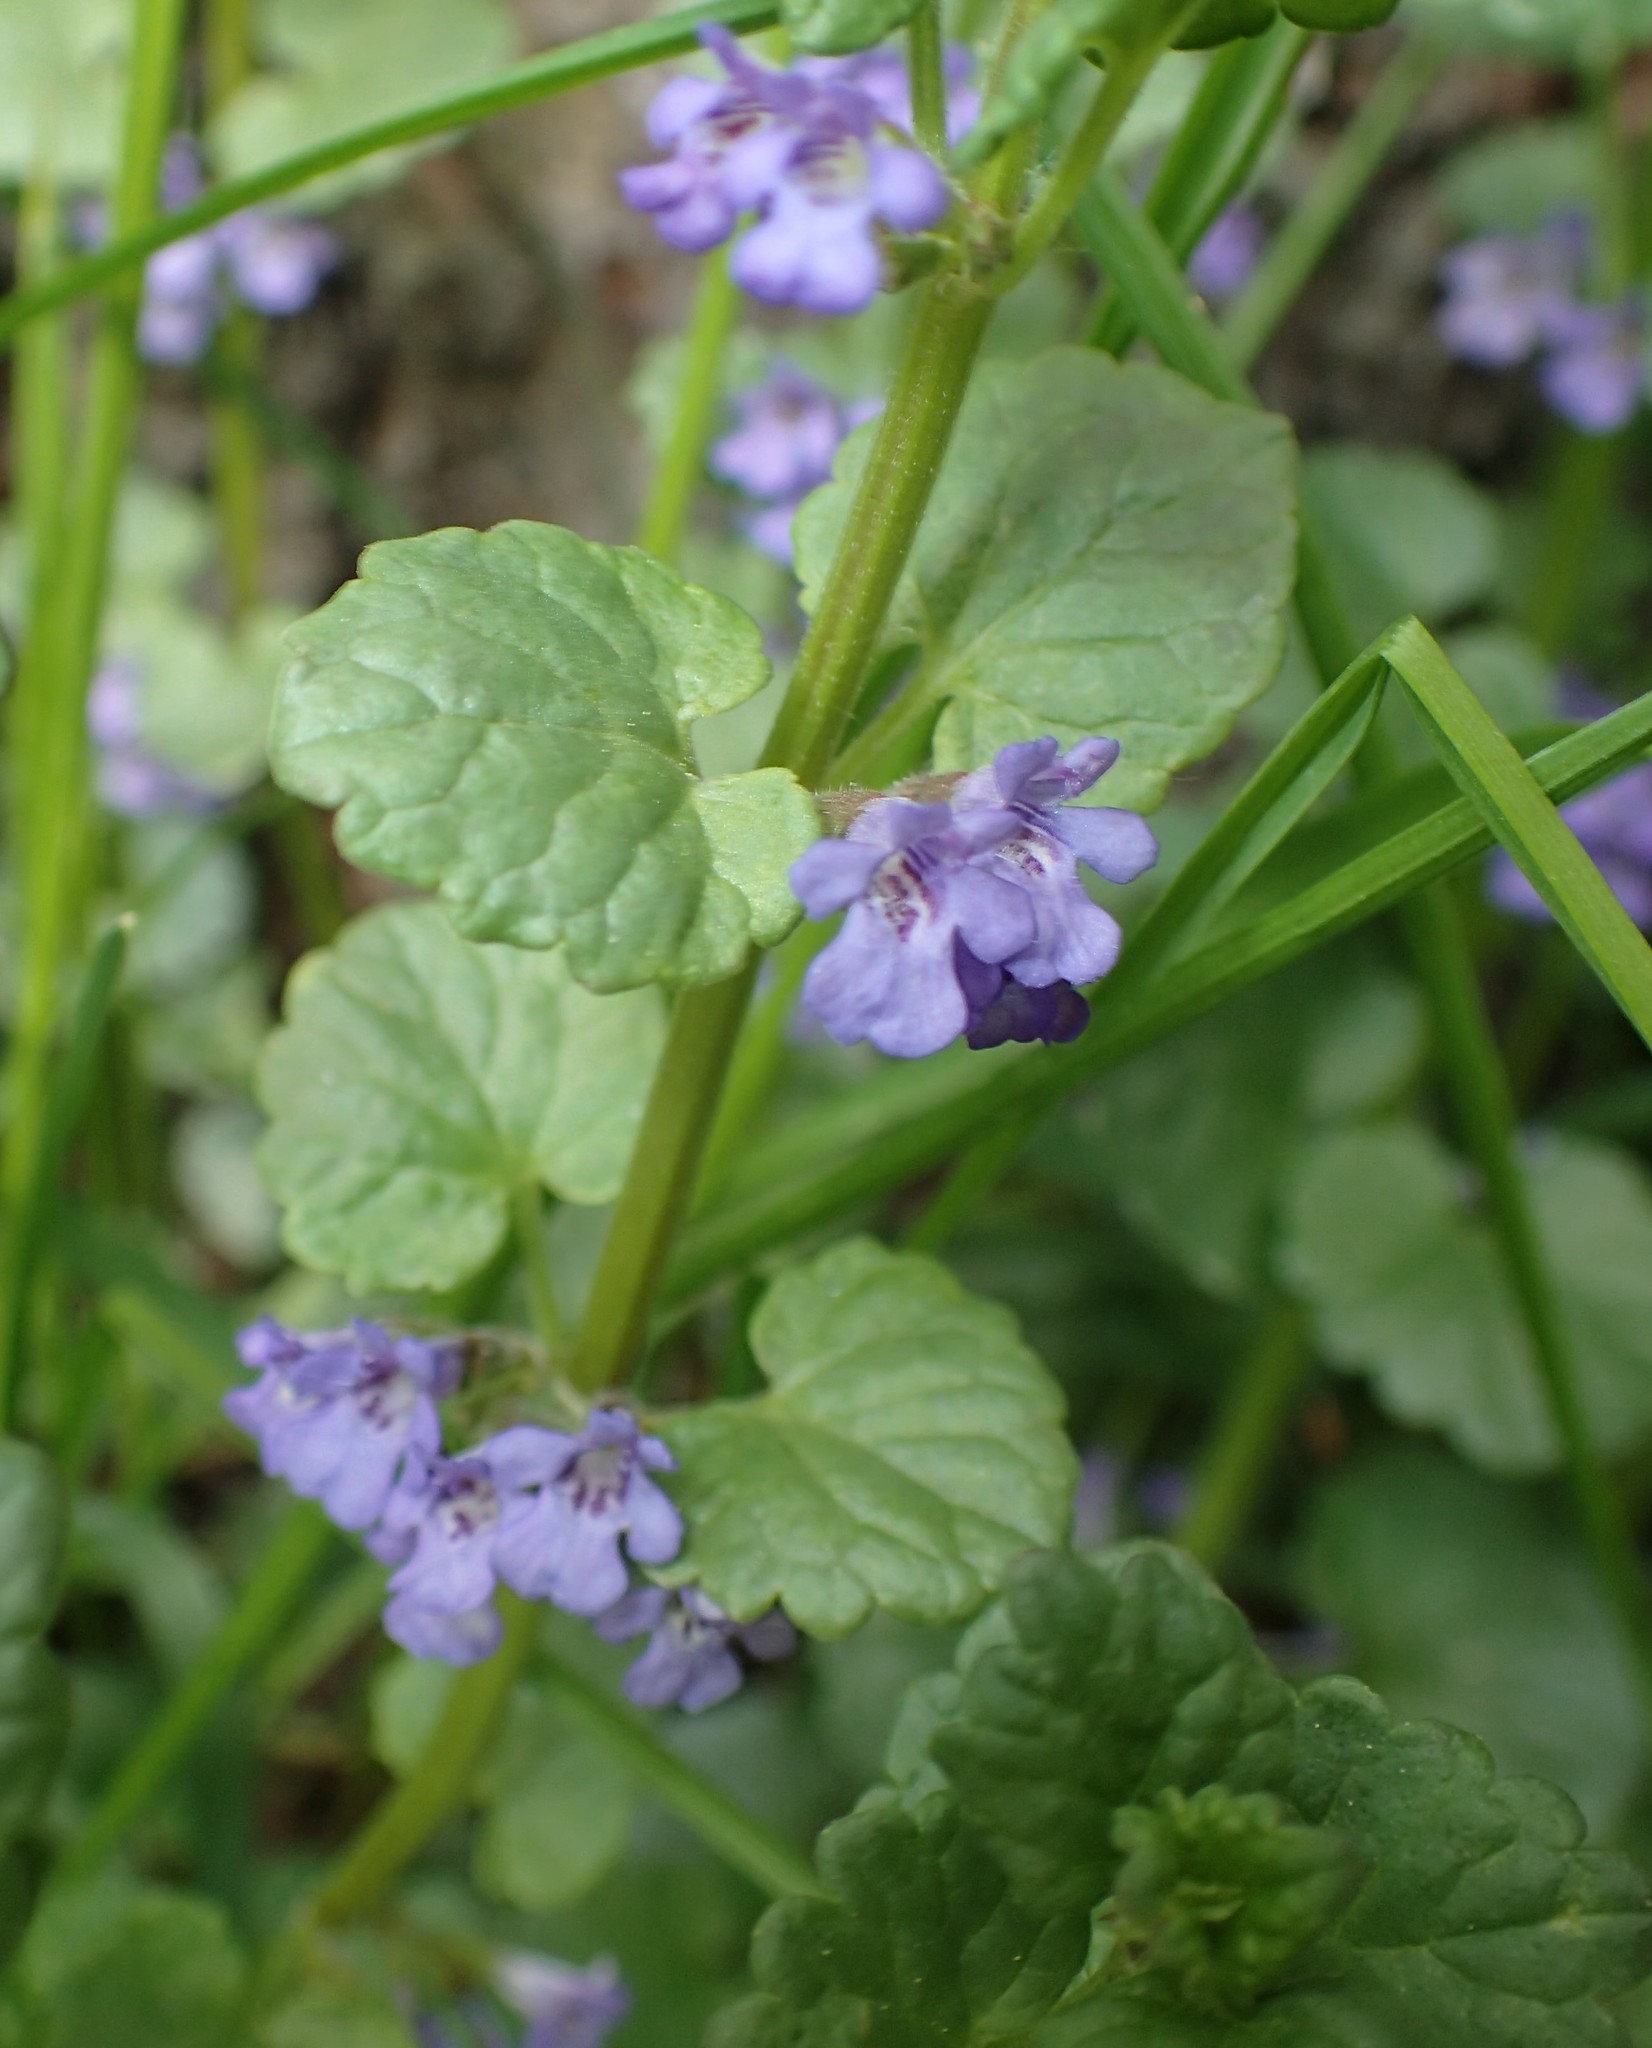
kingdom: Plantae
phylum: Tracheophyta
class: Magnoliopsida
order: Lamiales
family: Lamiaceae
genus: Glechoma
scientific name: Glechoma hederacea
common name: Ground ivy
